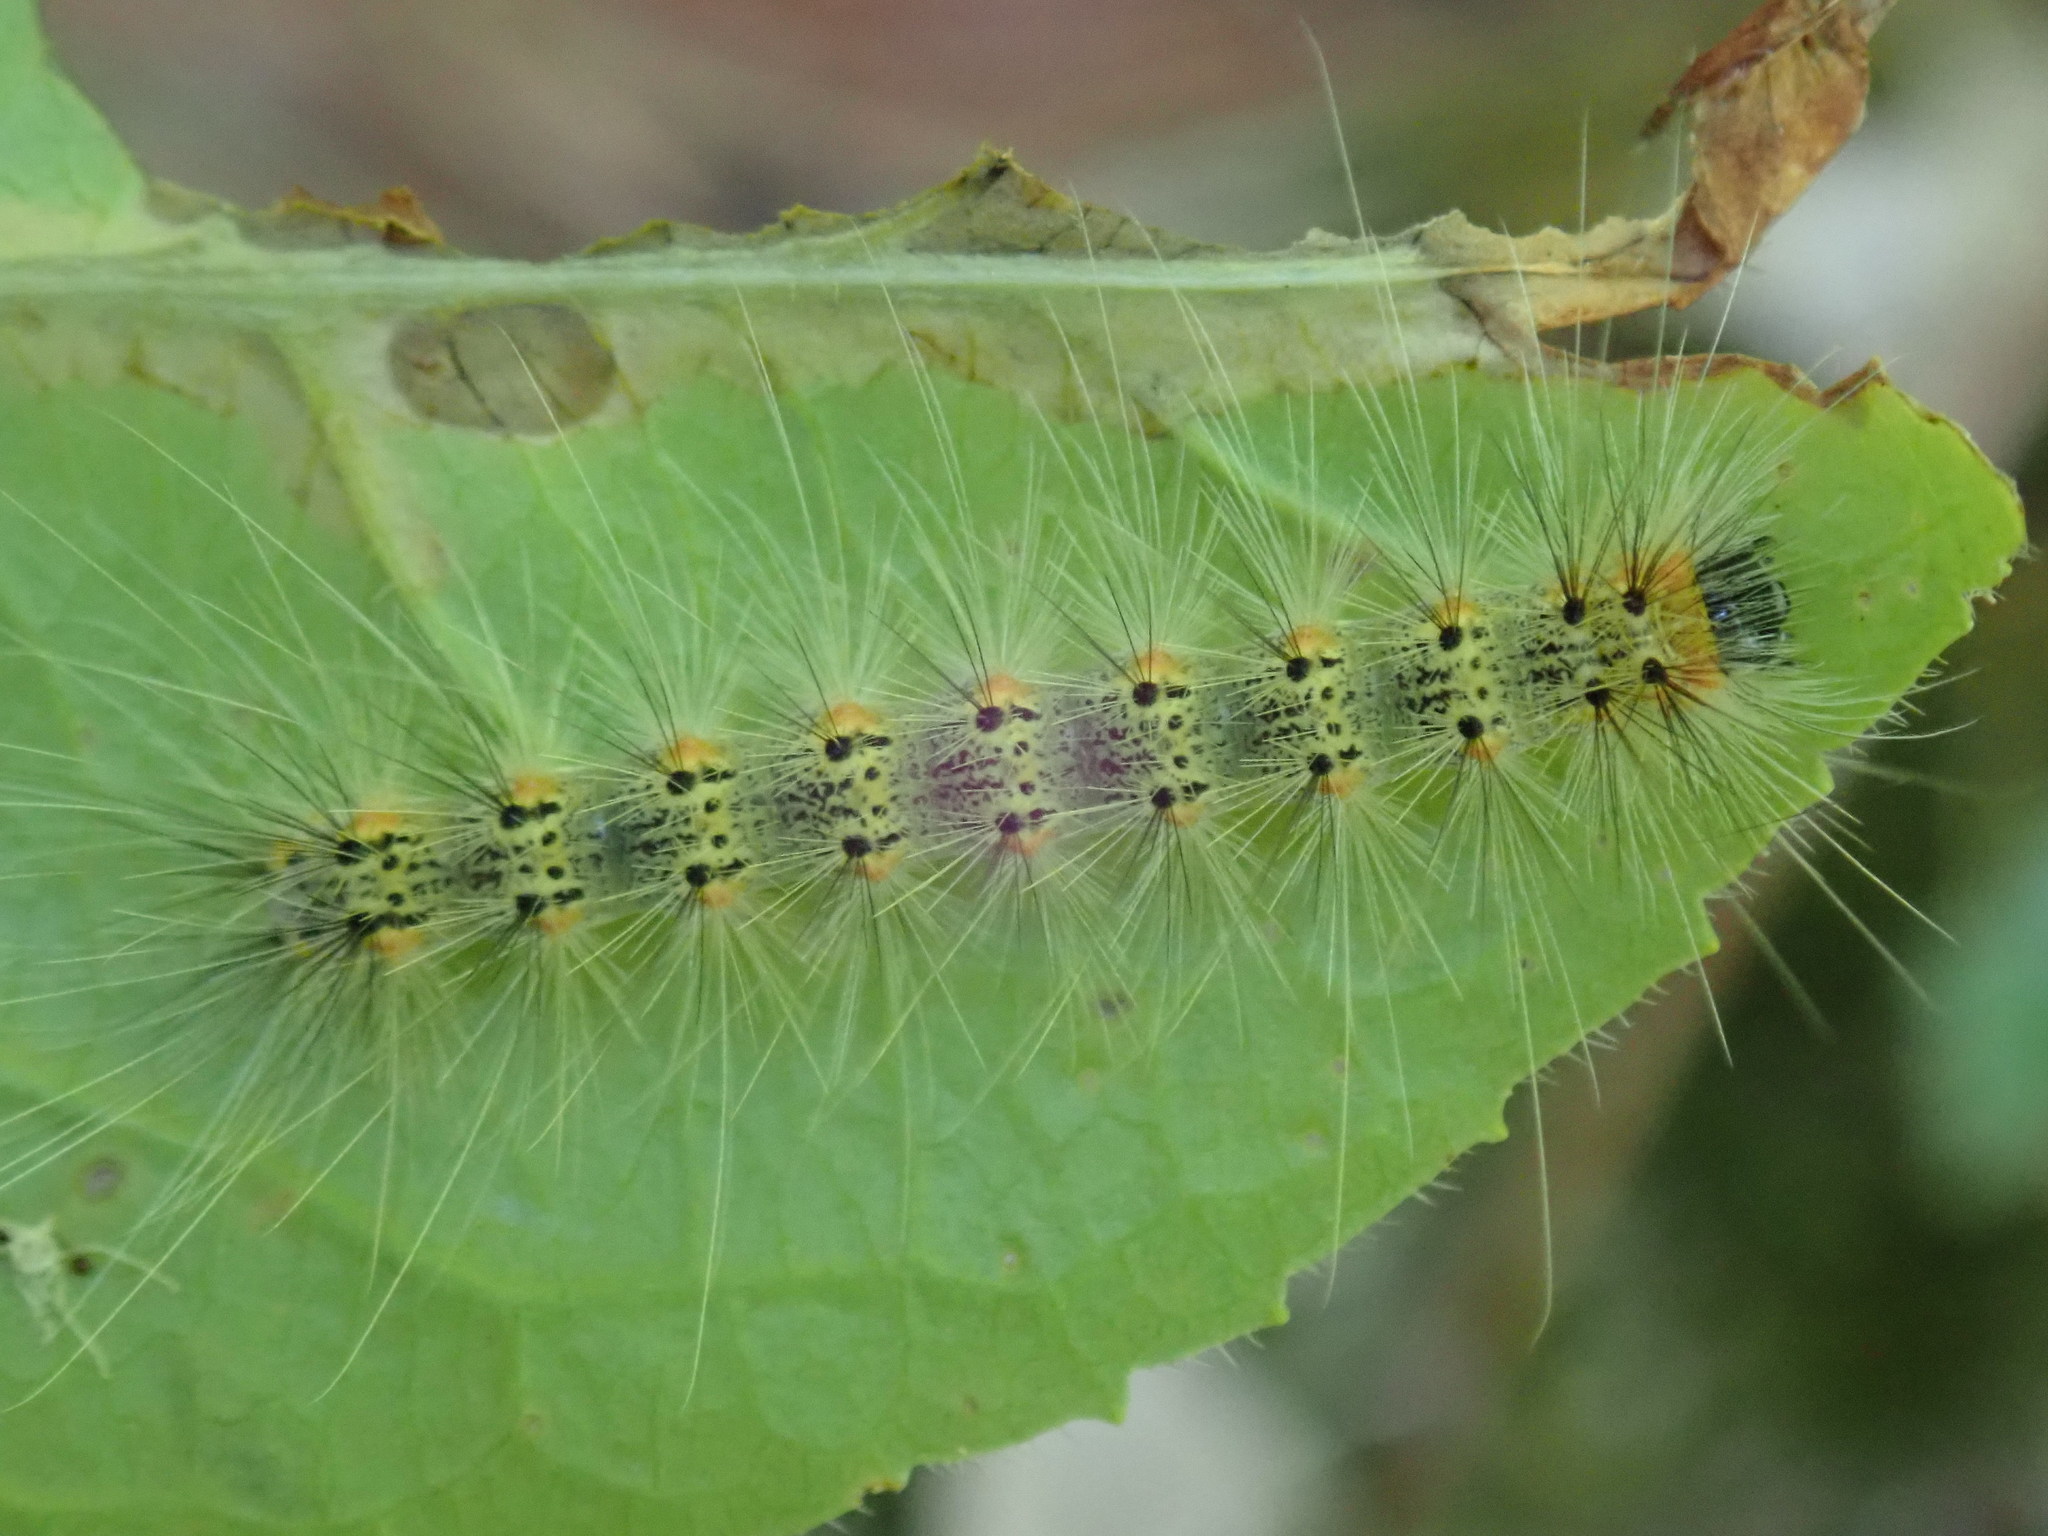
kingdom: Animalia
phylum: Arthropoda
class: Insecta
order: Lepidoptera
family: Erebidae
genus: Hyphantria
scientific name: Hyphantria cunea
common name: American white moth
